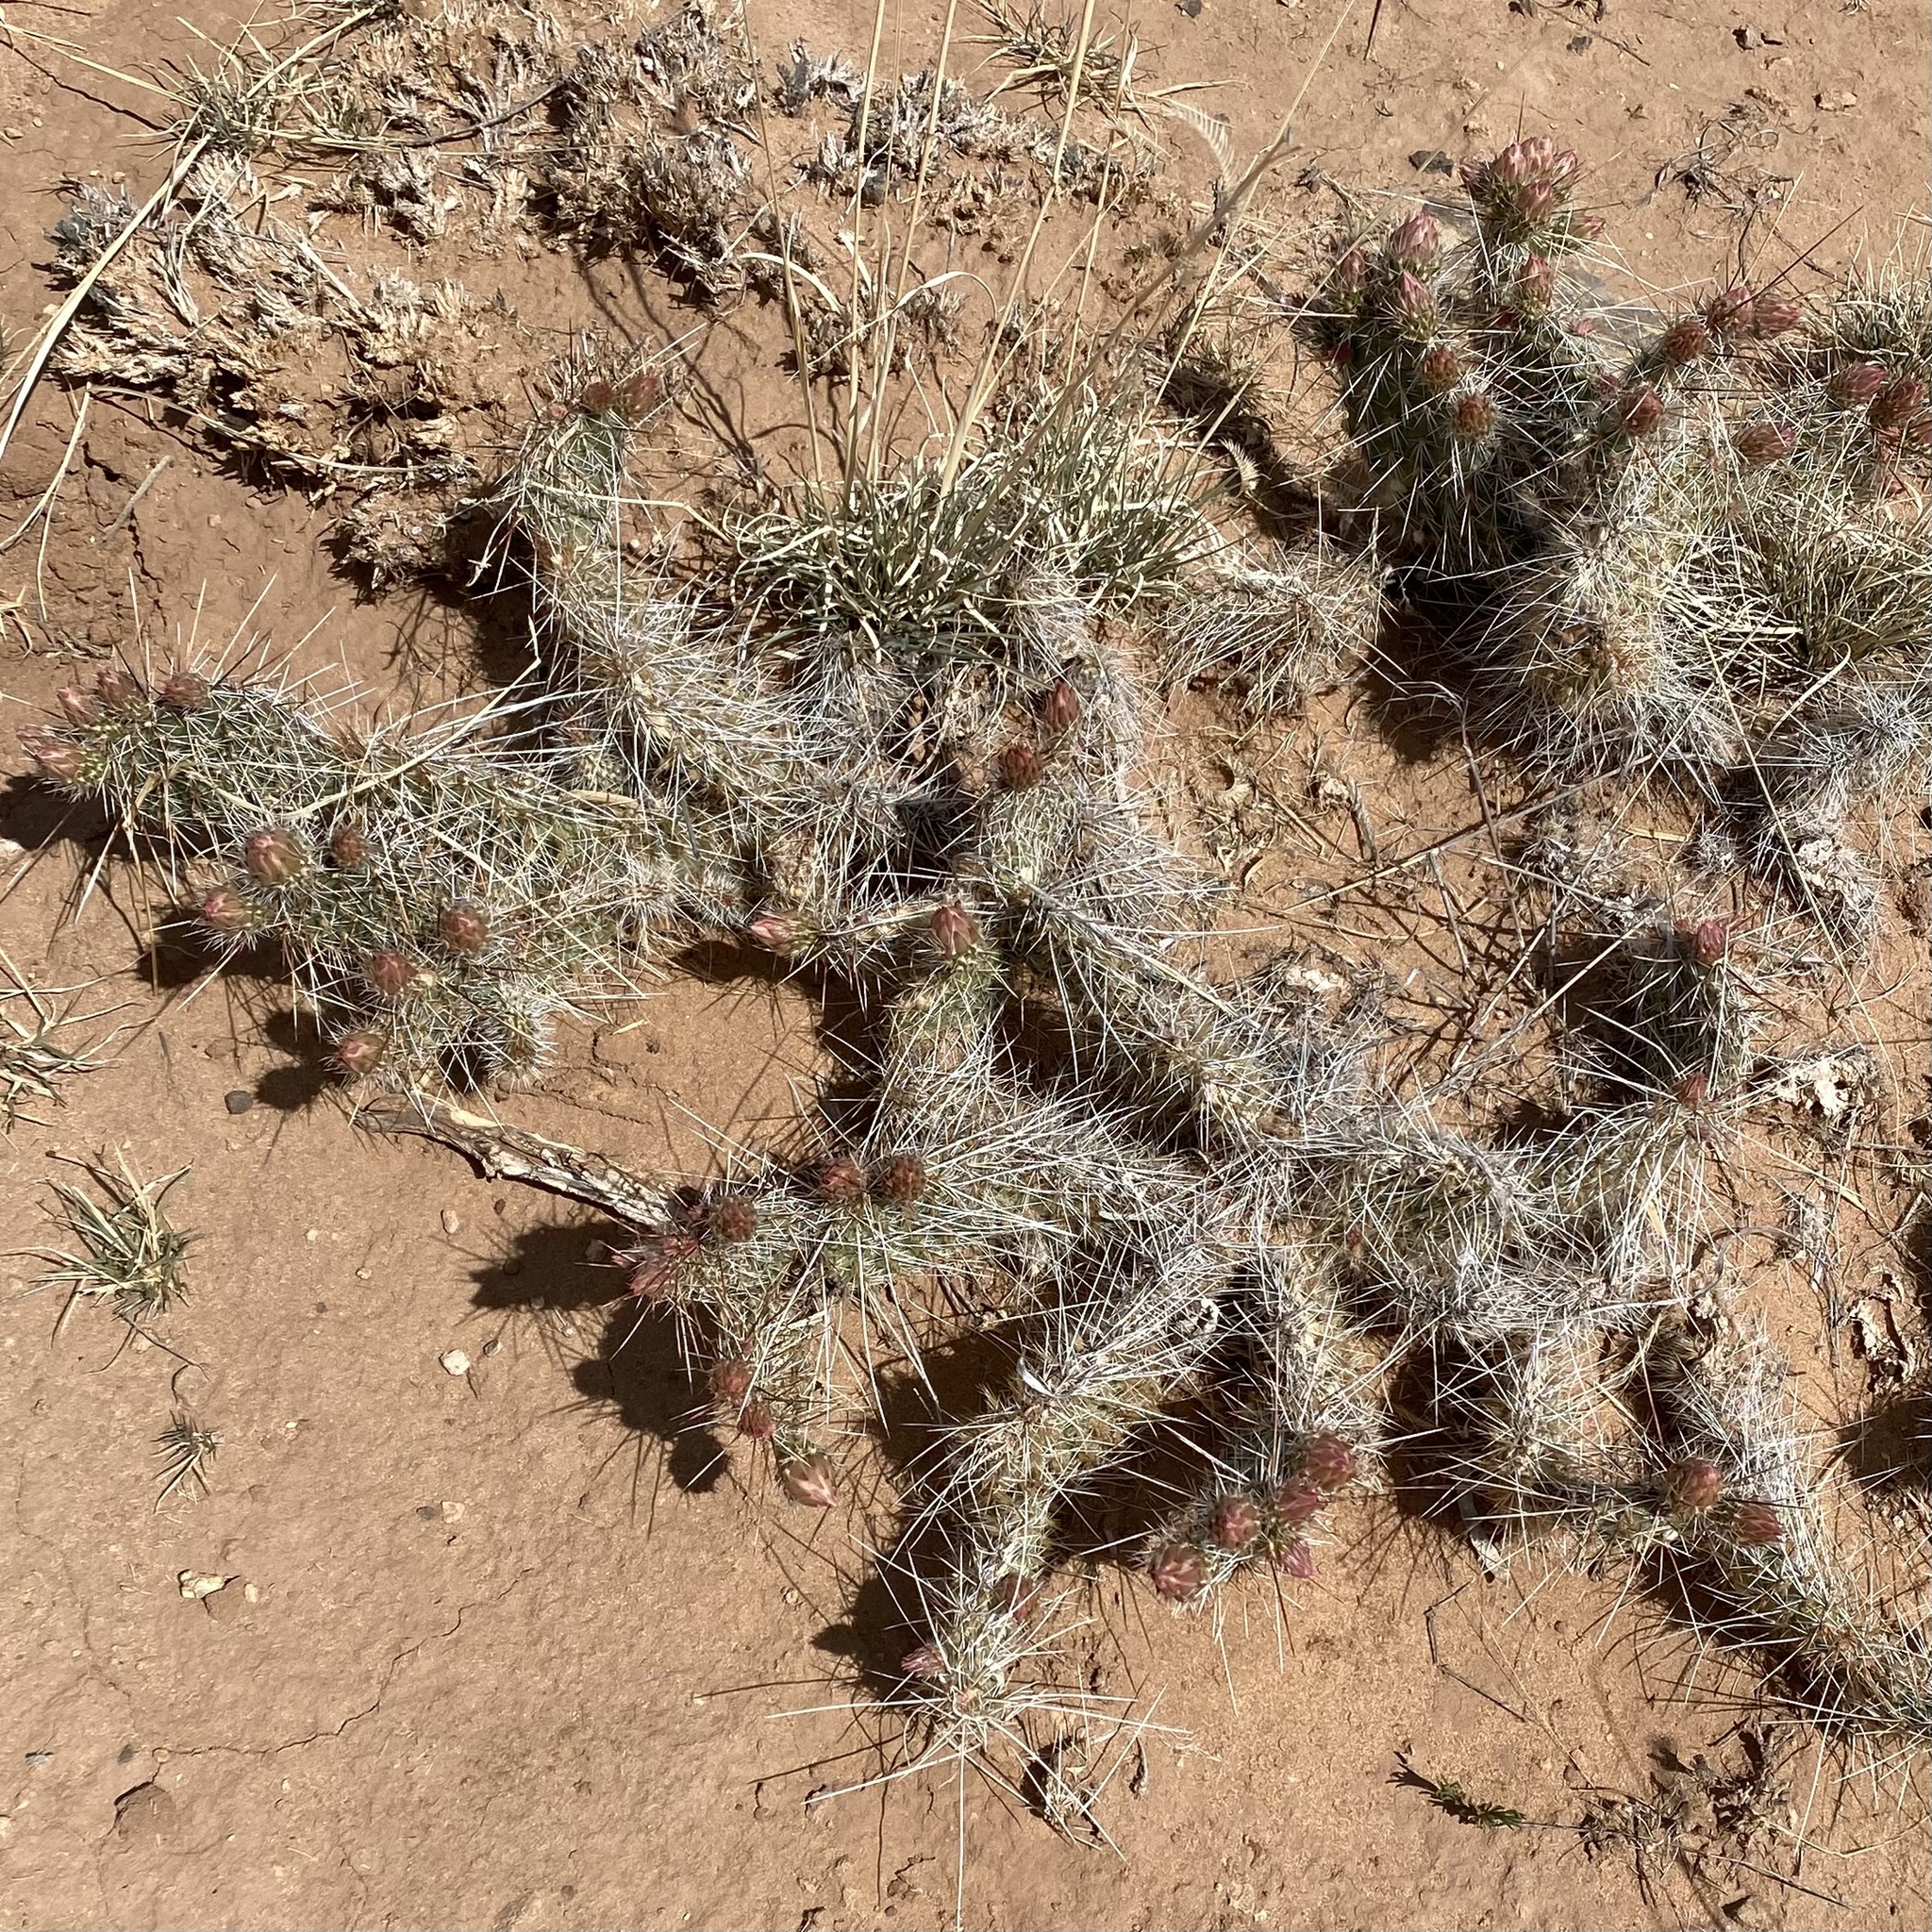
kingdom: Plantae
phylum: Tracheophyta
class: Magnoliopsida
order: Caryophyllales
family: Cactaceae
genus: Opuntia
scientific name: Opuntia polyacantha
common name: Plains prickly-pear
